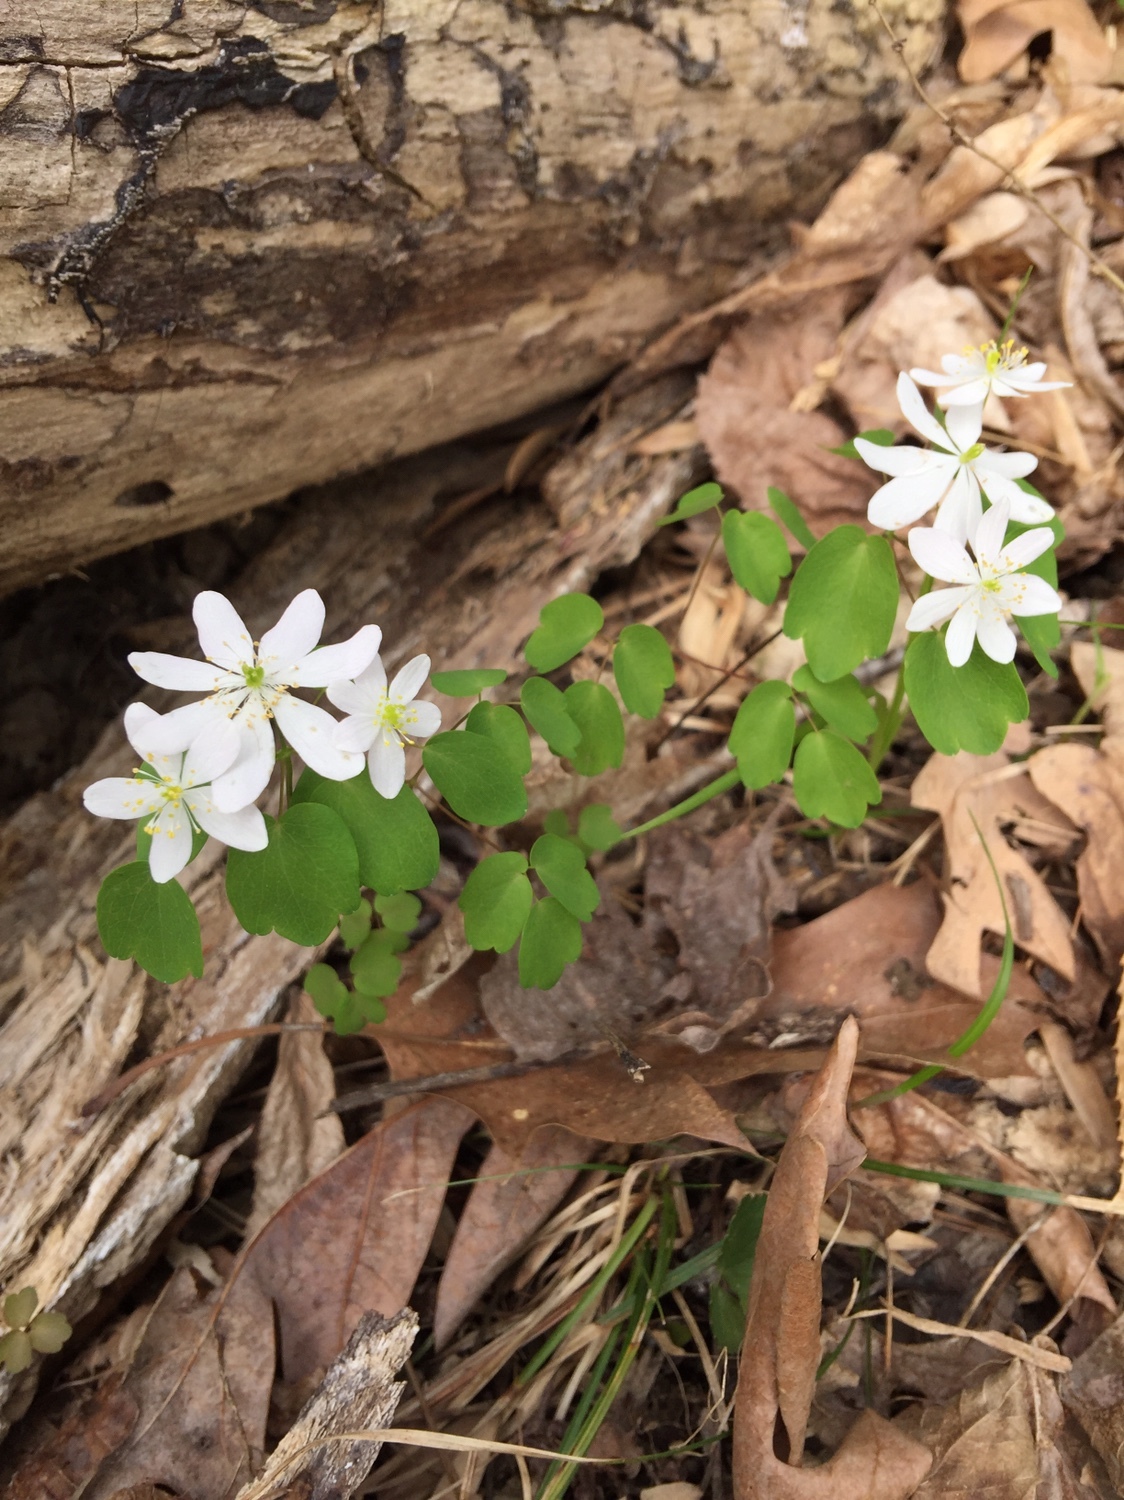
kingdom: Plantae
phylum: Tracheophyta
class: Magnoliopsida
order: Ranunculales
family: Ranunculaceae
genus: Thalictrum
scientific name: Thalictrum thalictroides
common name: Rue-anemone
